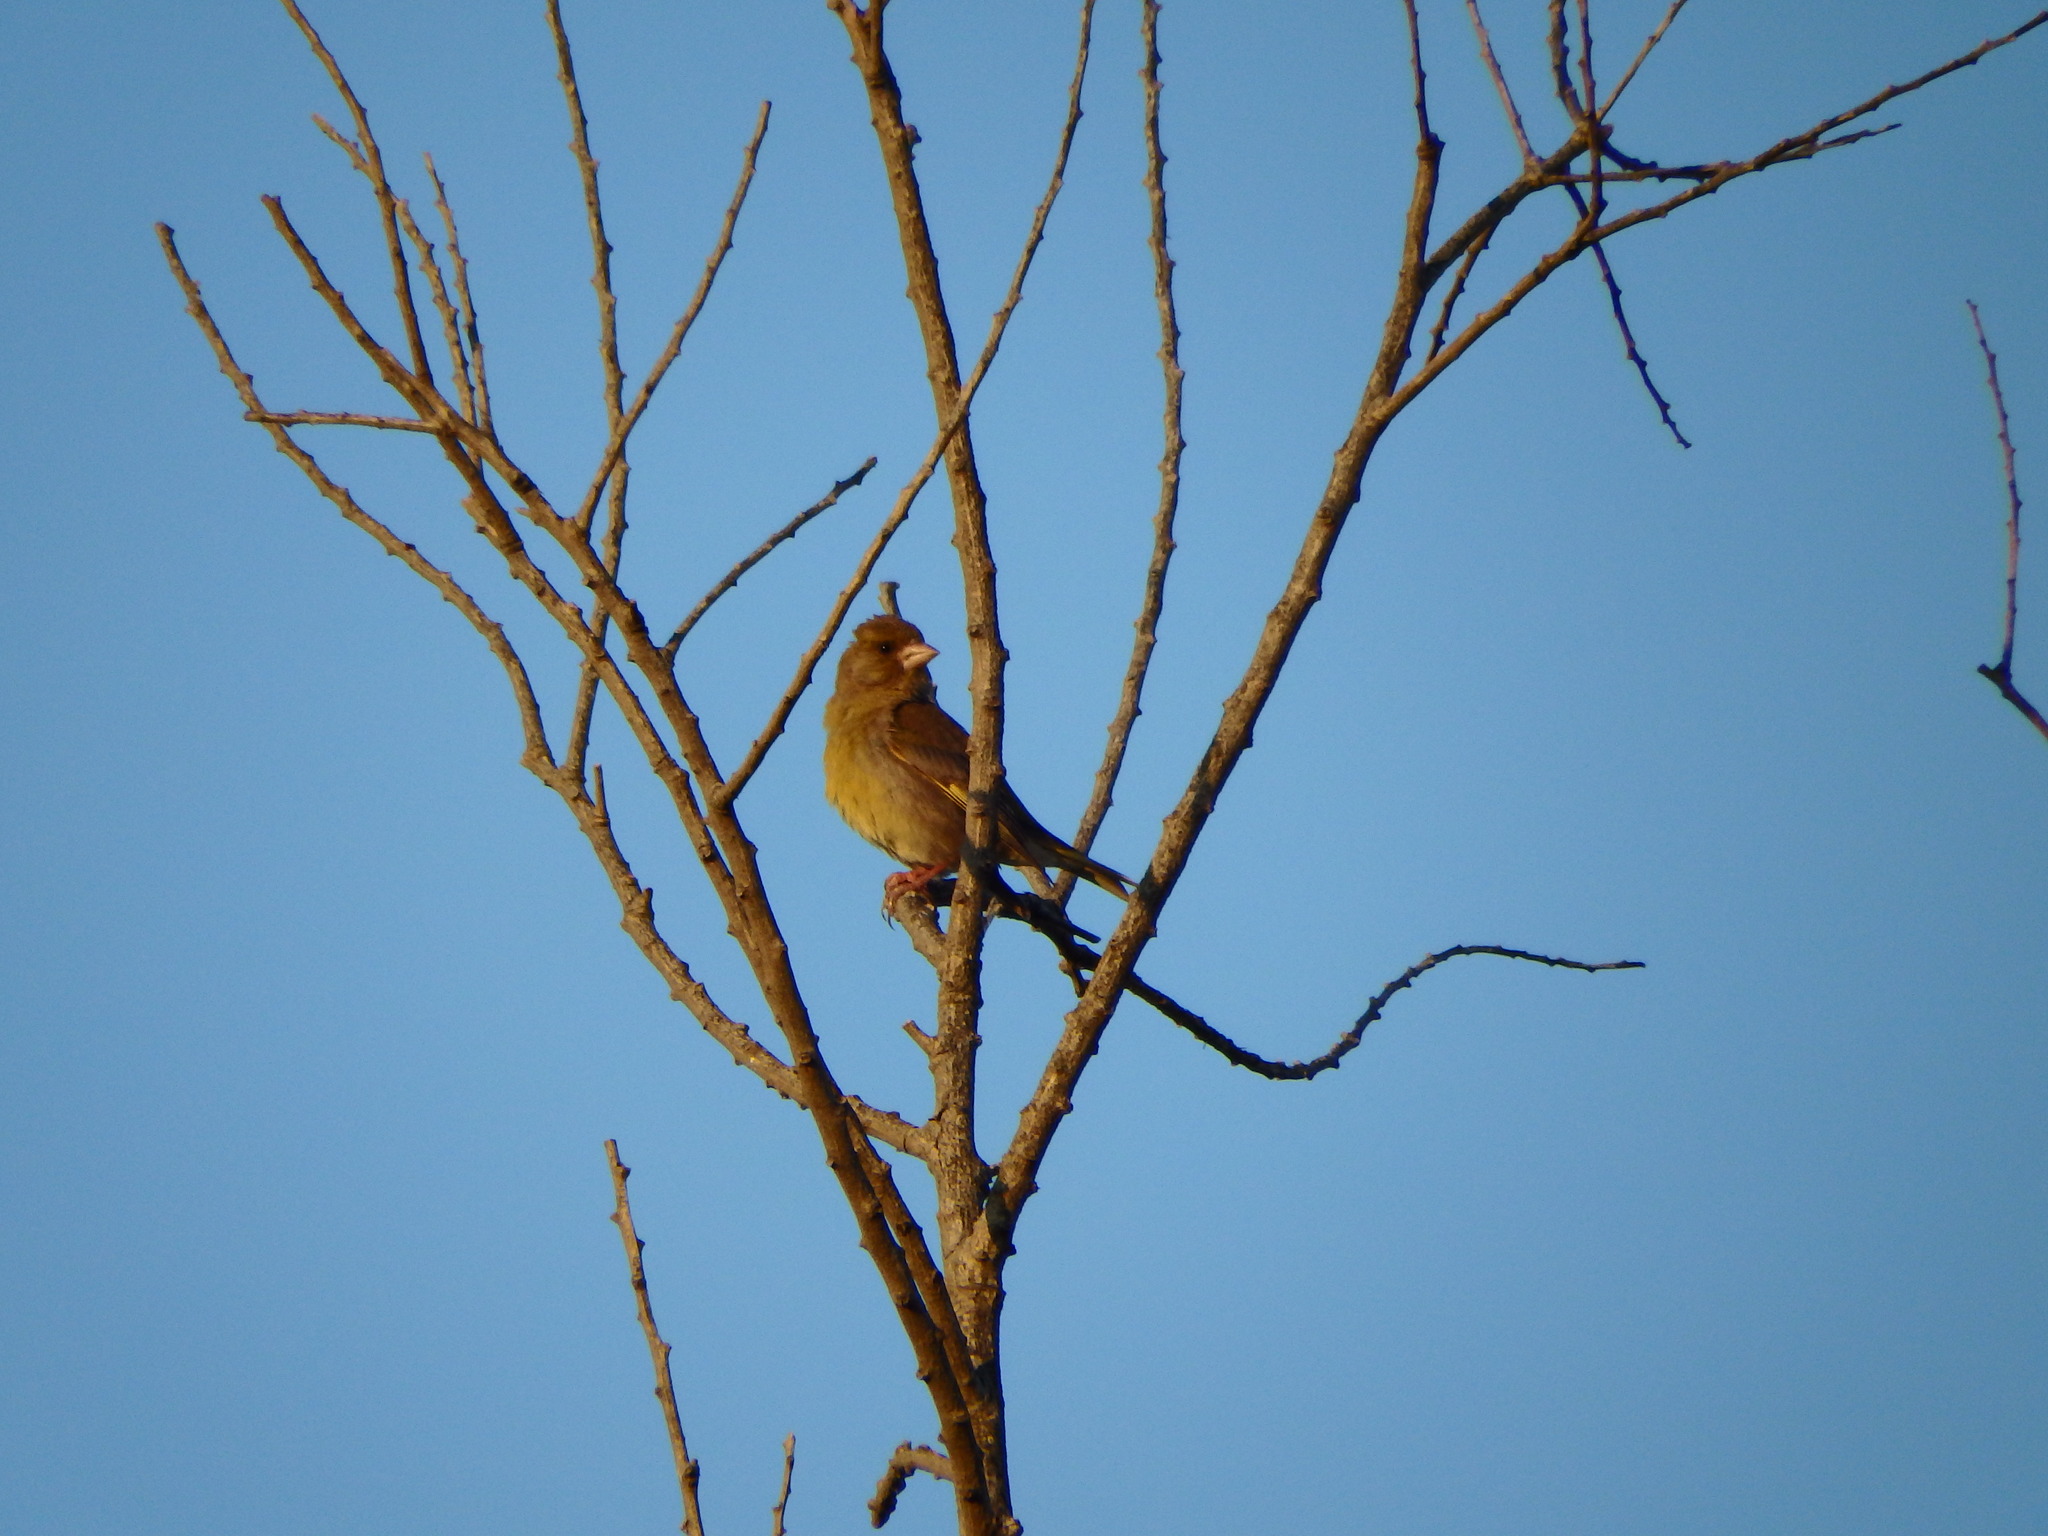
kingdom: Plantae
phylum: Tracheophyta
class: Liliopsida
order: Poales
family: Poaceae
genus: Chloris
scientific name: Chloris chloris
